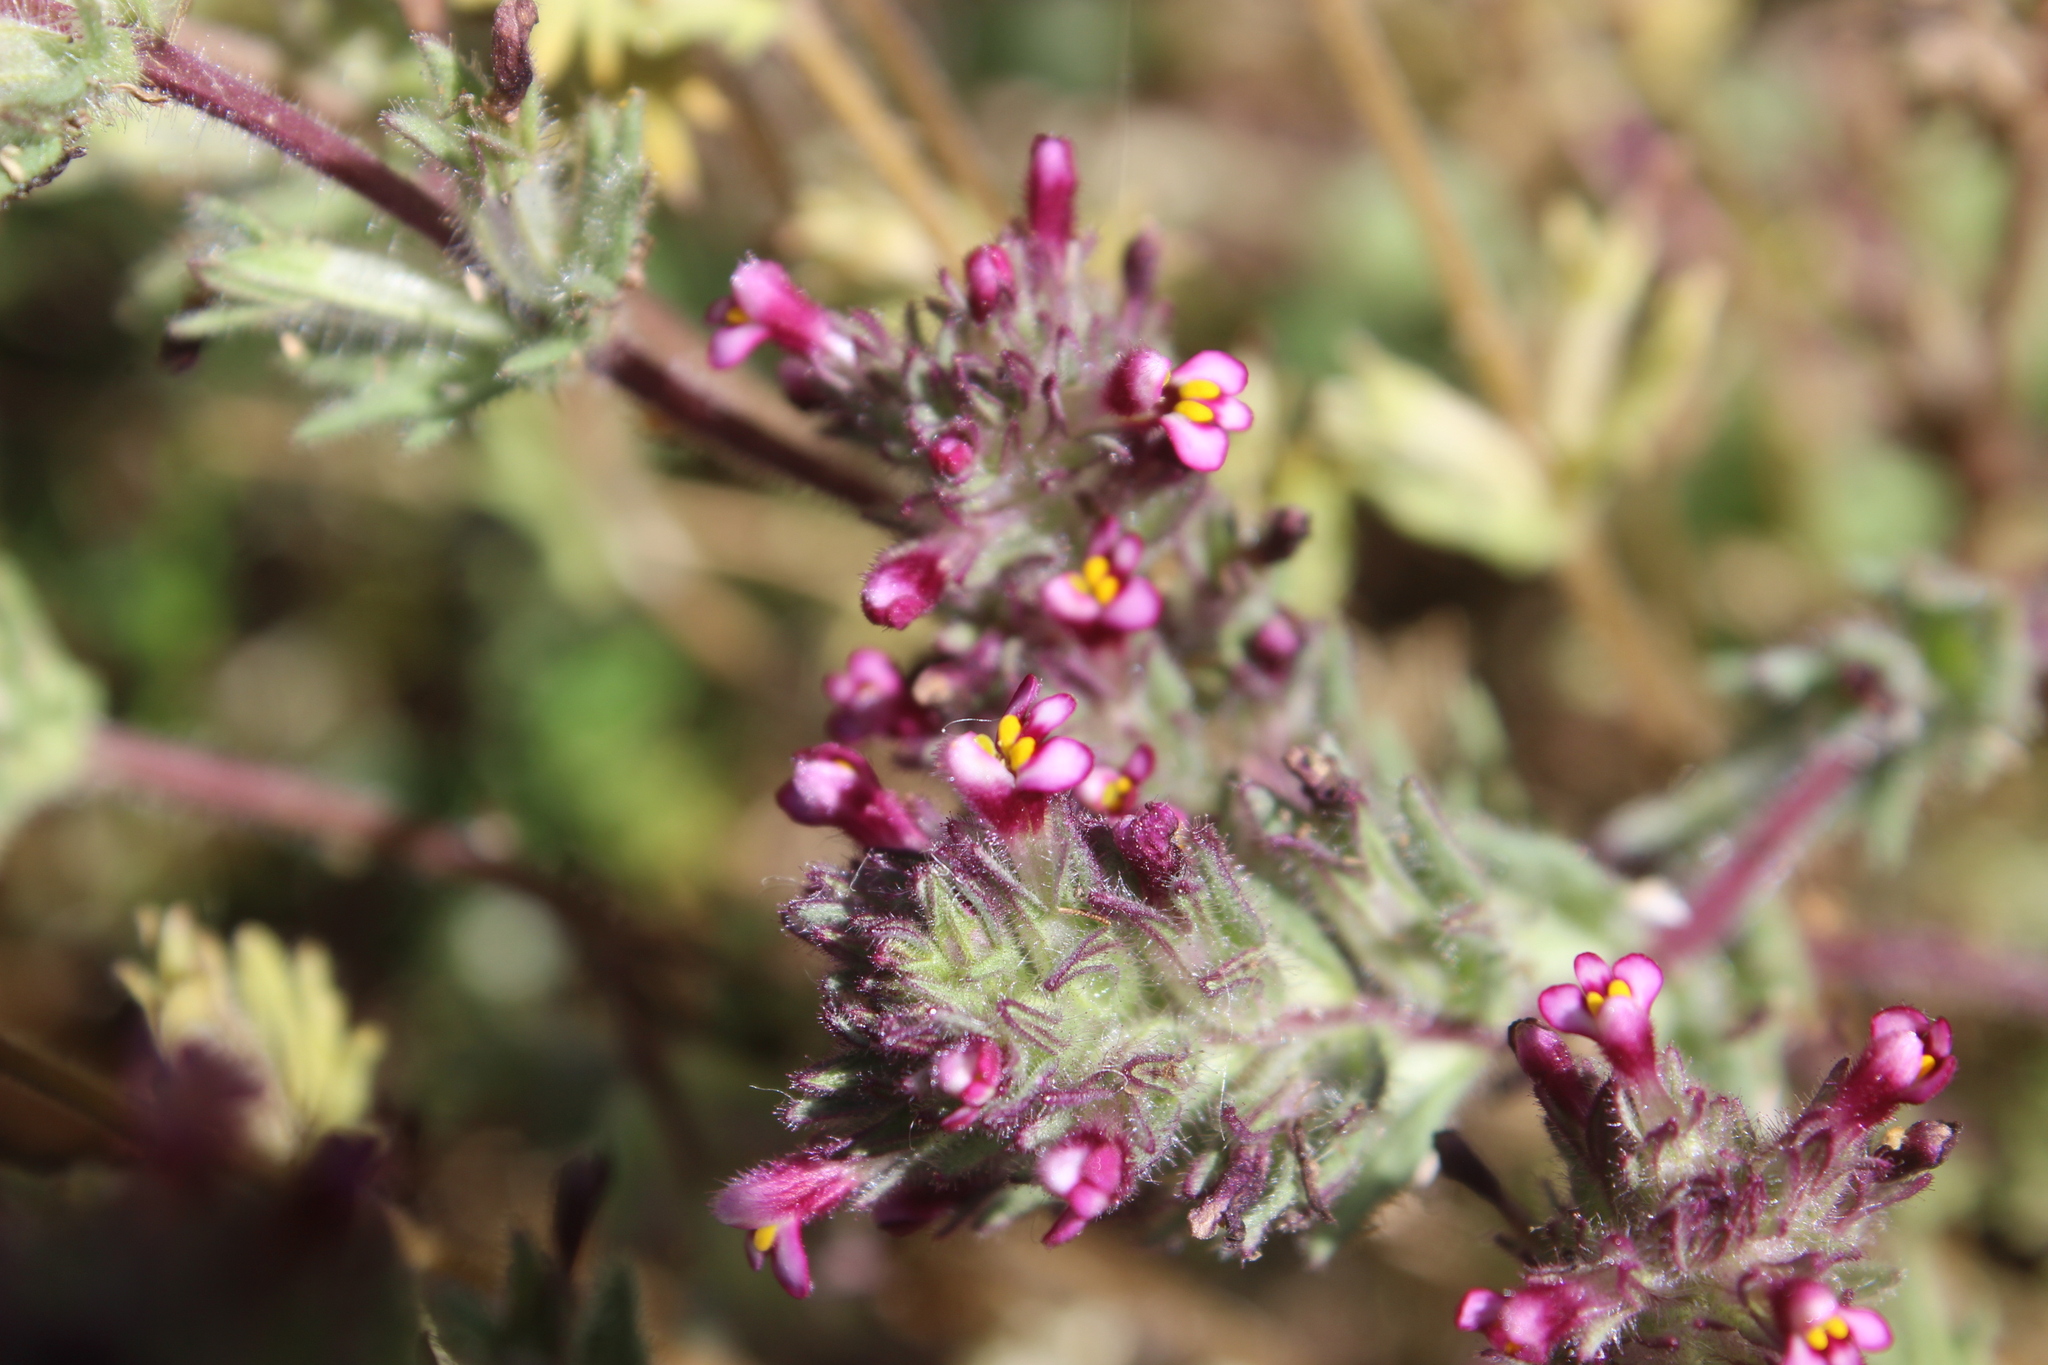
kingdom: Plantae
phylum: Tracheophyta
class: Magnoliopsida
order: Lamiales
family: Orobanchaceae
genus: Parentucellia
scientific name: Parentucellia latifolia
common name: Broadleaf glandweed
